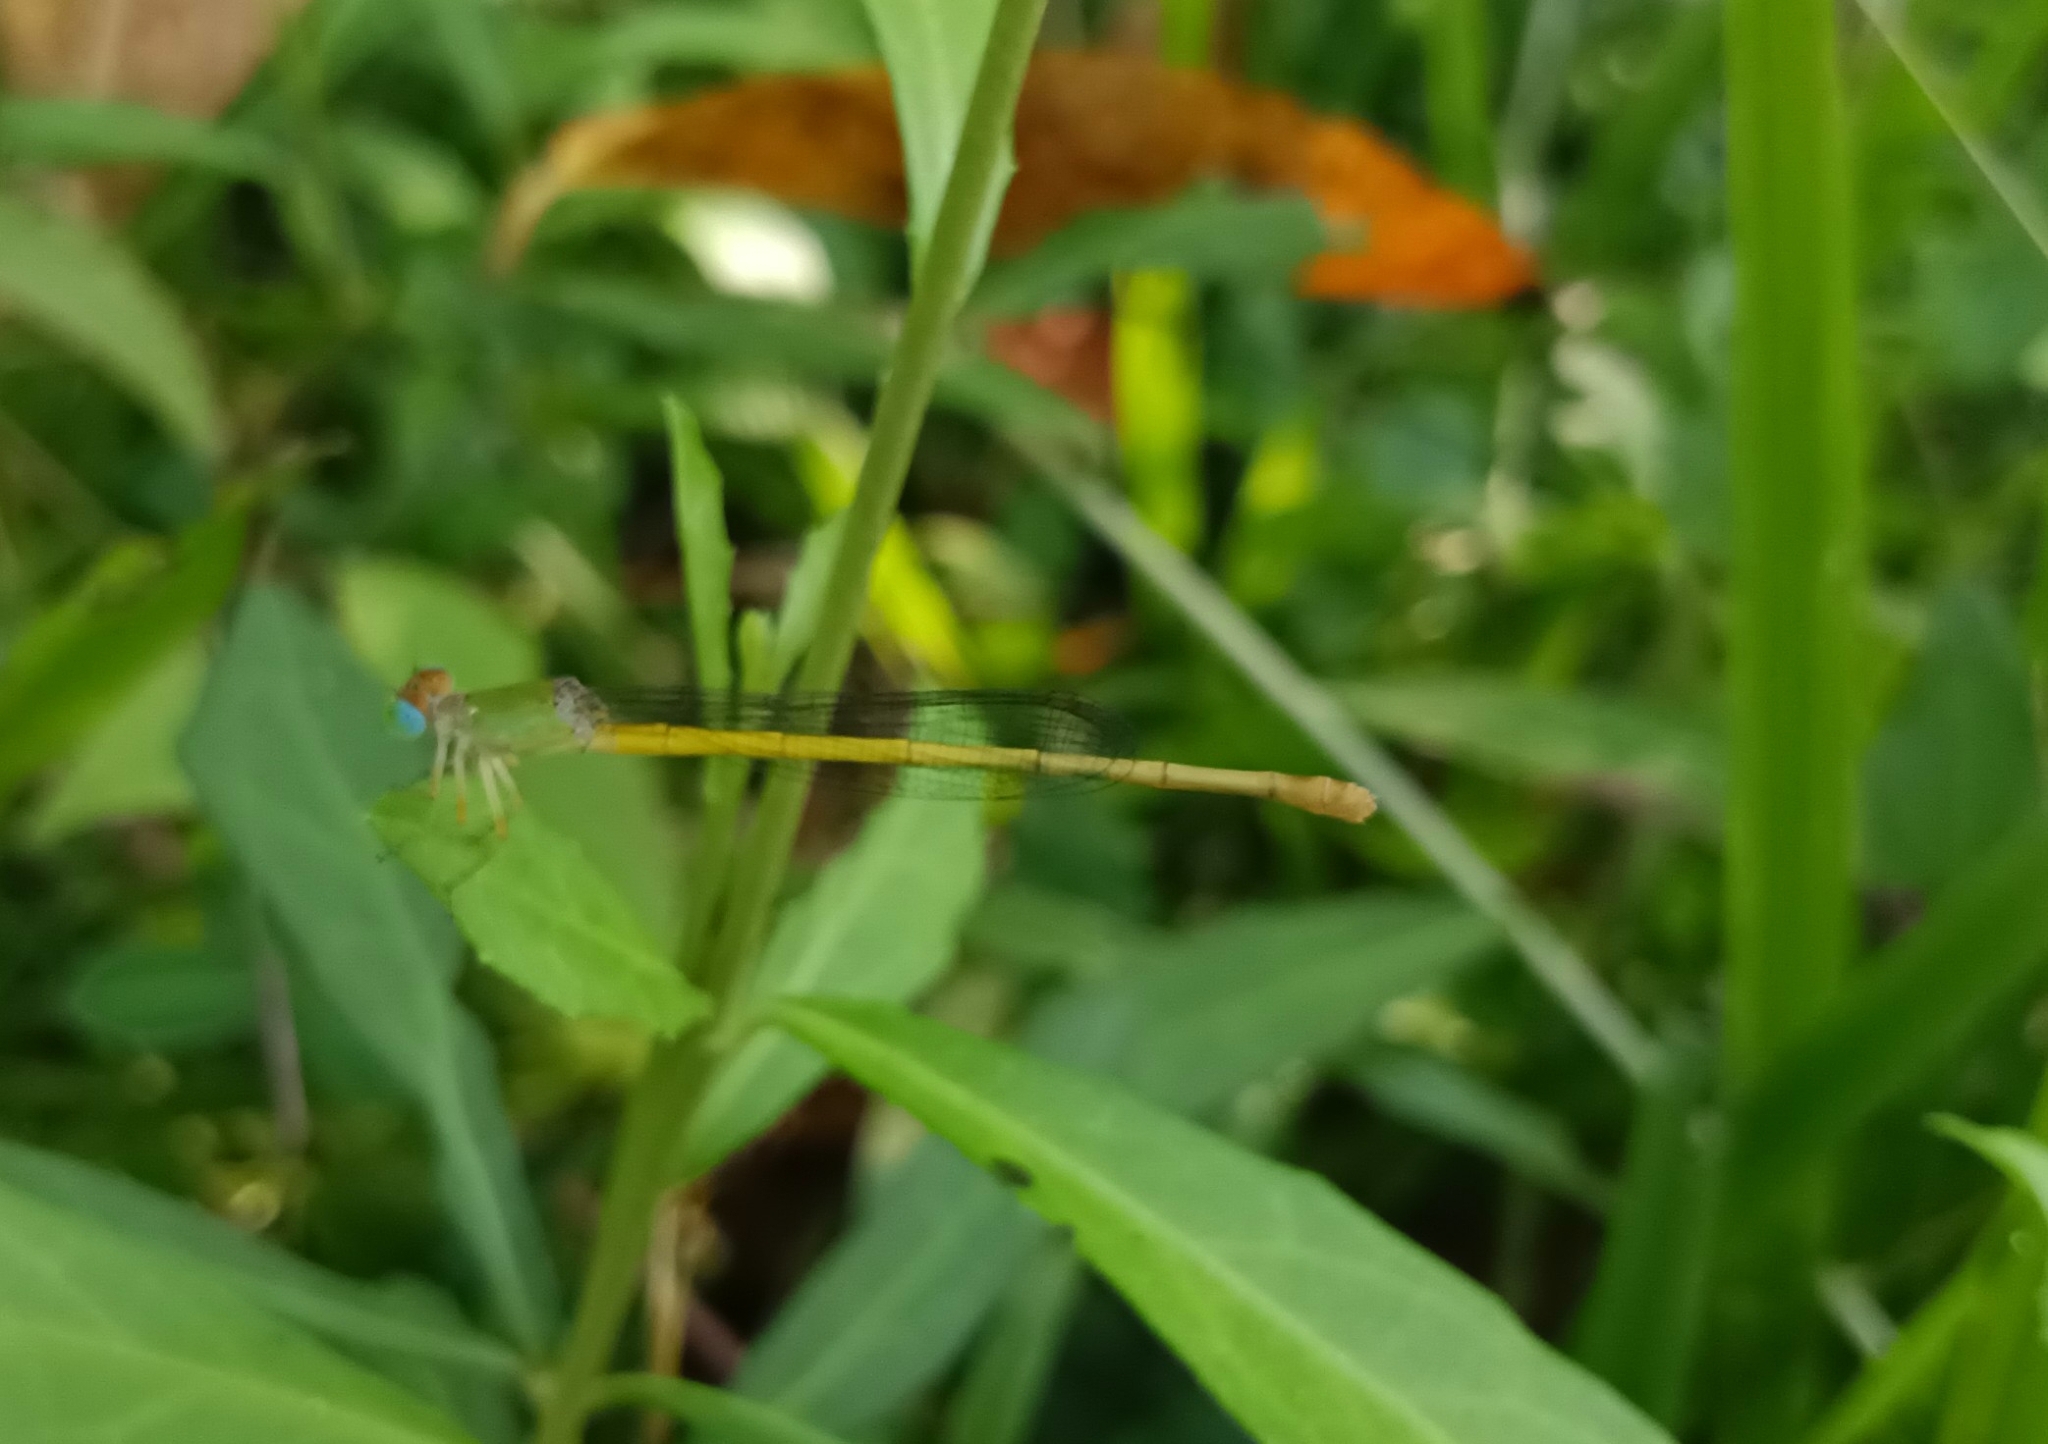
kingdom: Animalia
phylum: Arthropoda
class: Insecta
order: Odonata
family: Coenagrionidae
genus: Ceriagrion
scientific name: Ceriagrion coromandelianum
